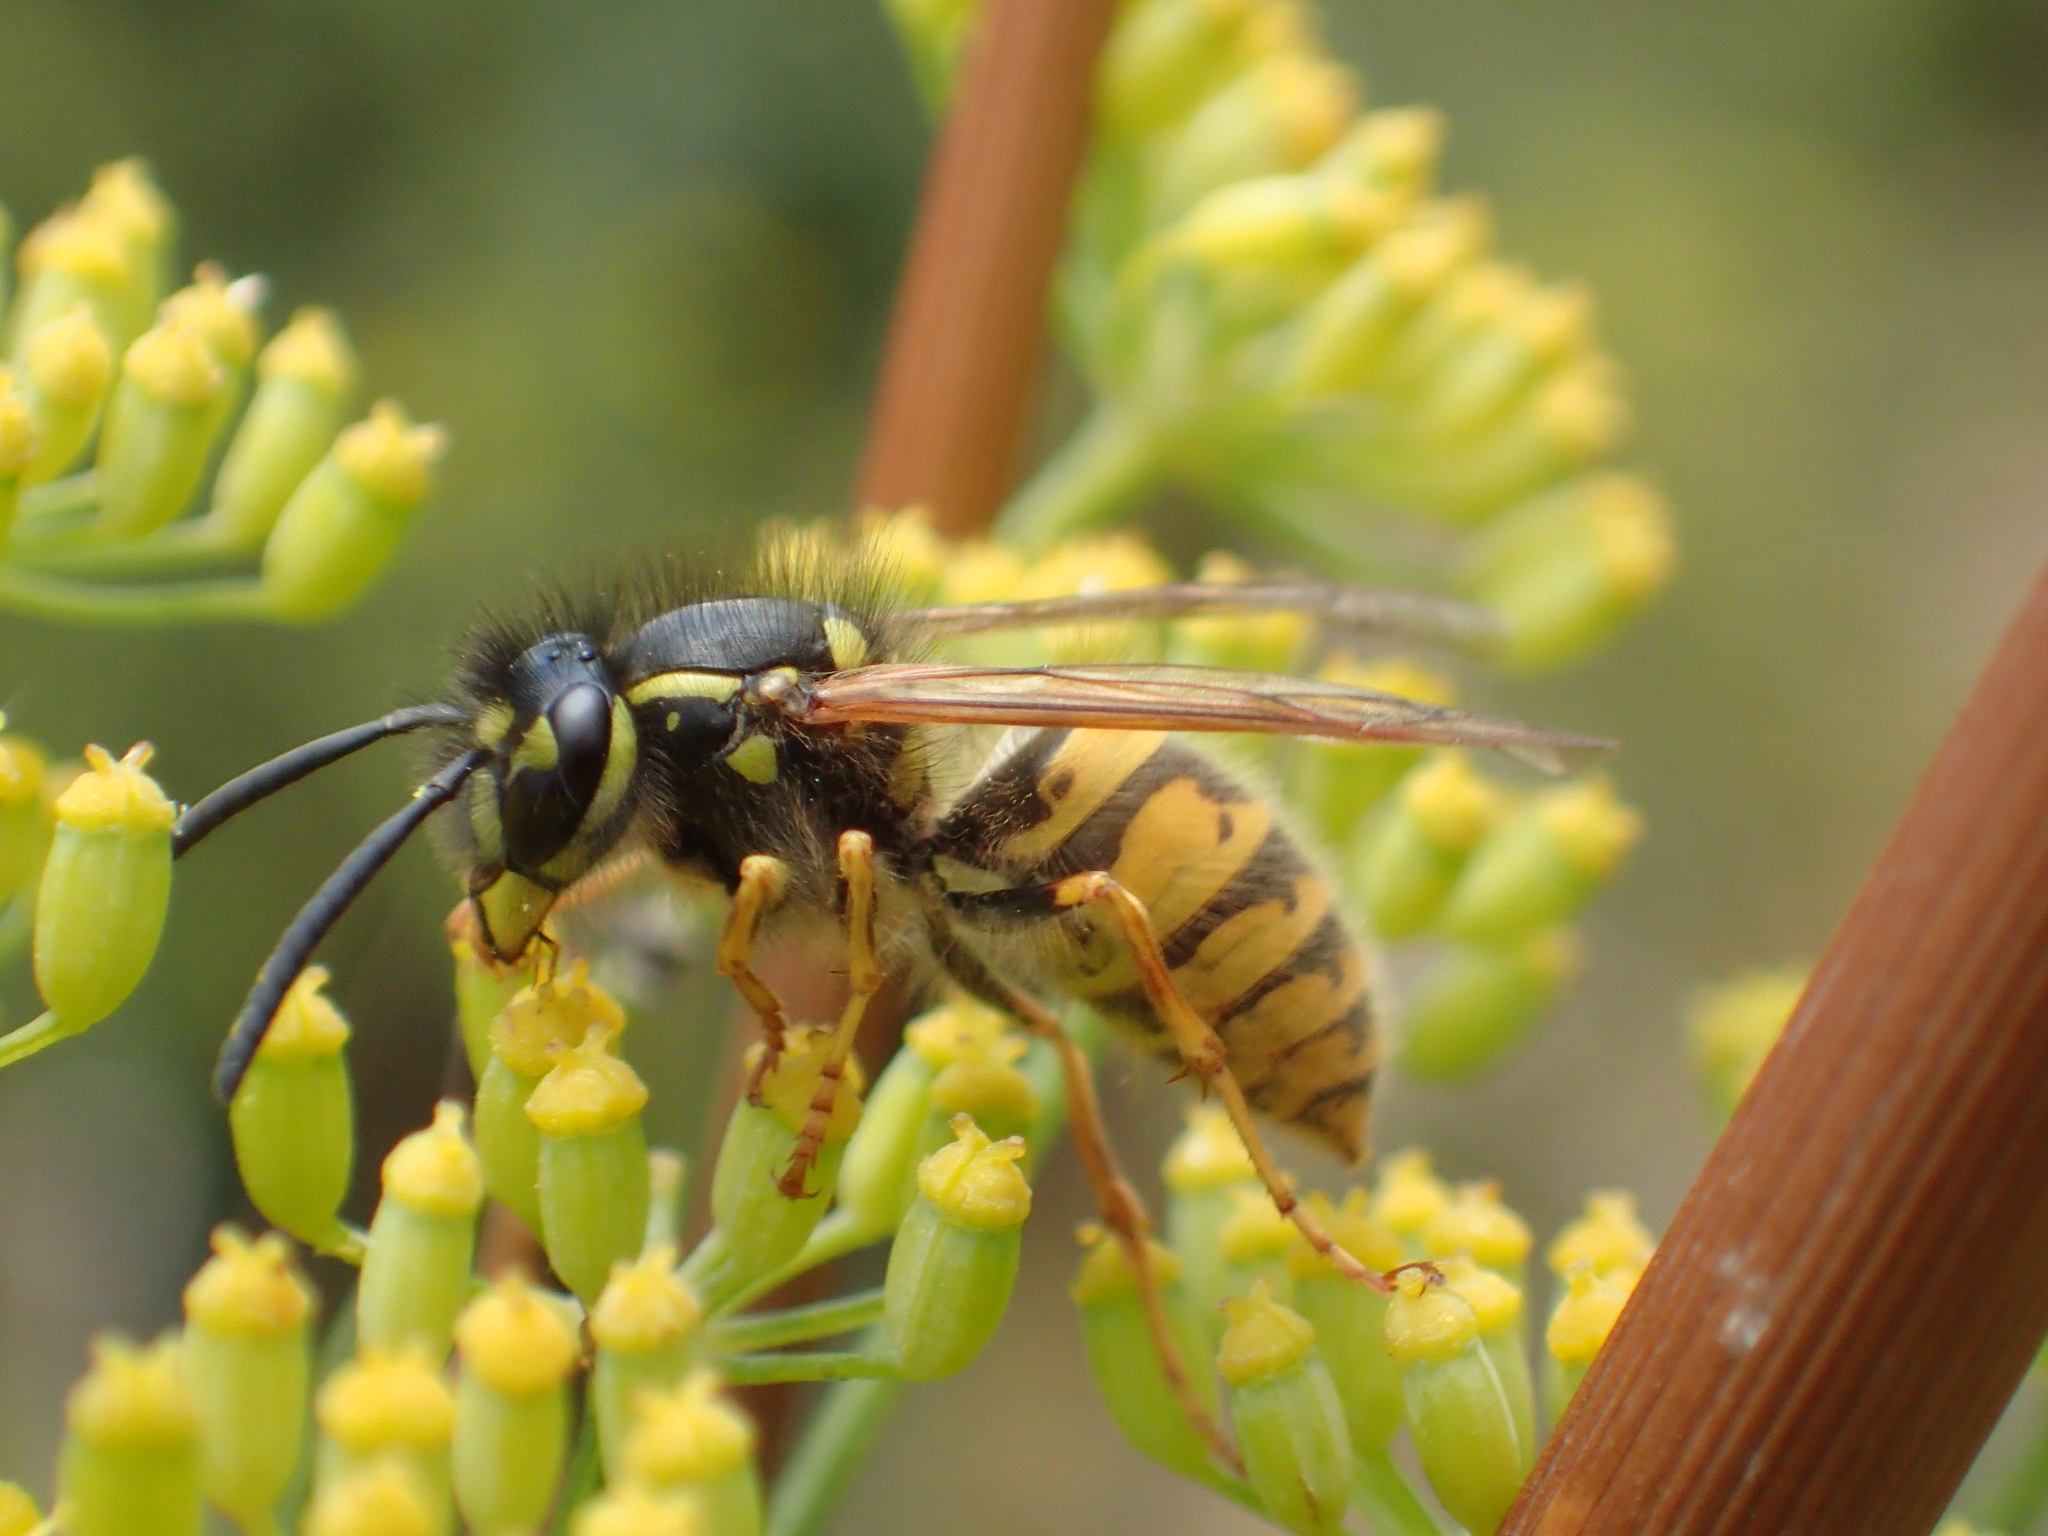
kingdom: Animalia
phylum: Arthropoda
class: Insecta
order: Hymenoptera
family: Vespidae
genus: Vespula
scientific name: Vespula vulgaris
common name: Common wasp
